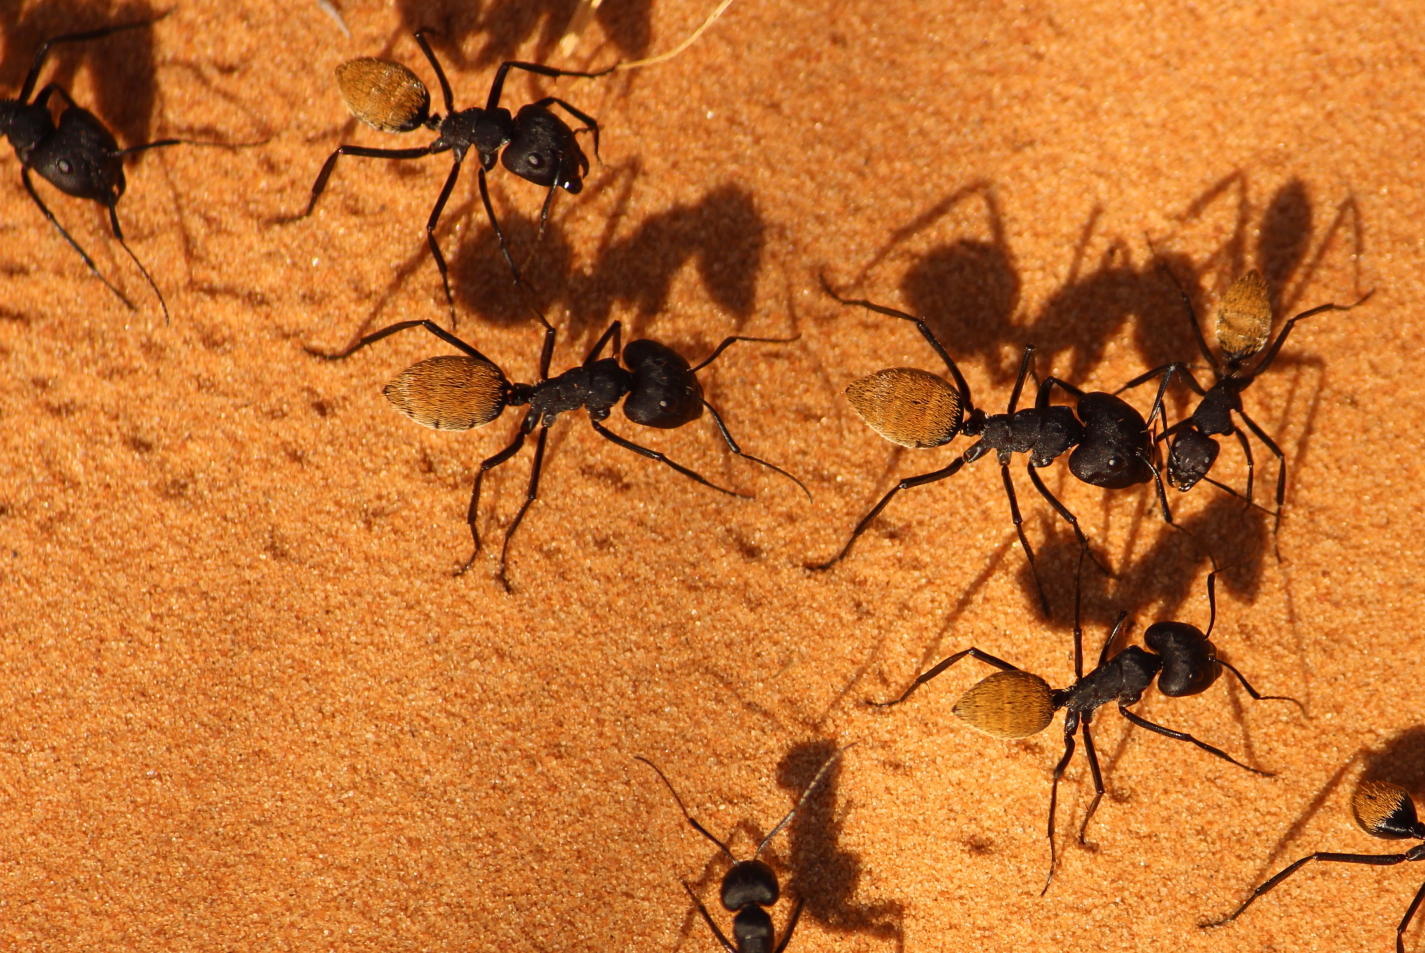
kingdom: Animalia
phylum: Arthropoda
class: Insecta
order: Hymenoptera
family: Formicidae
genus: Camponotus
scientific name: Camponotus fulvopilosus
